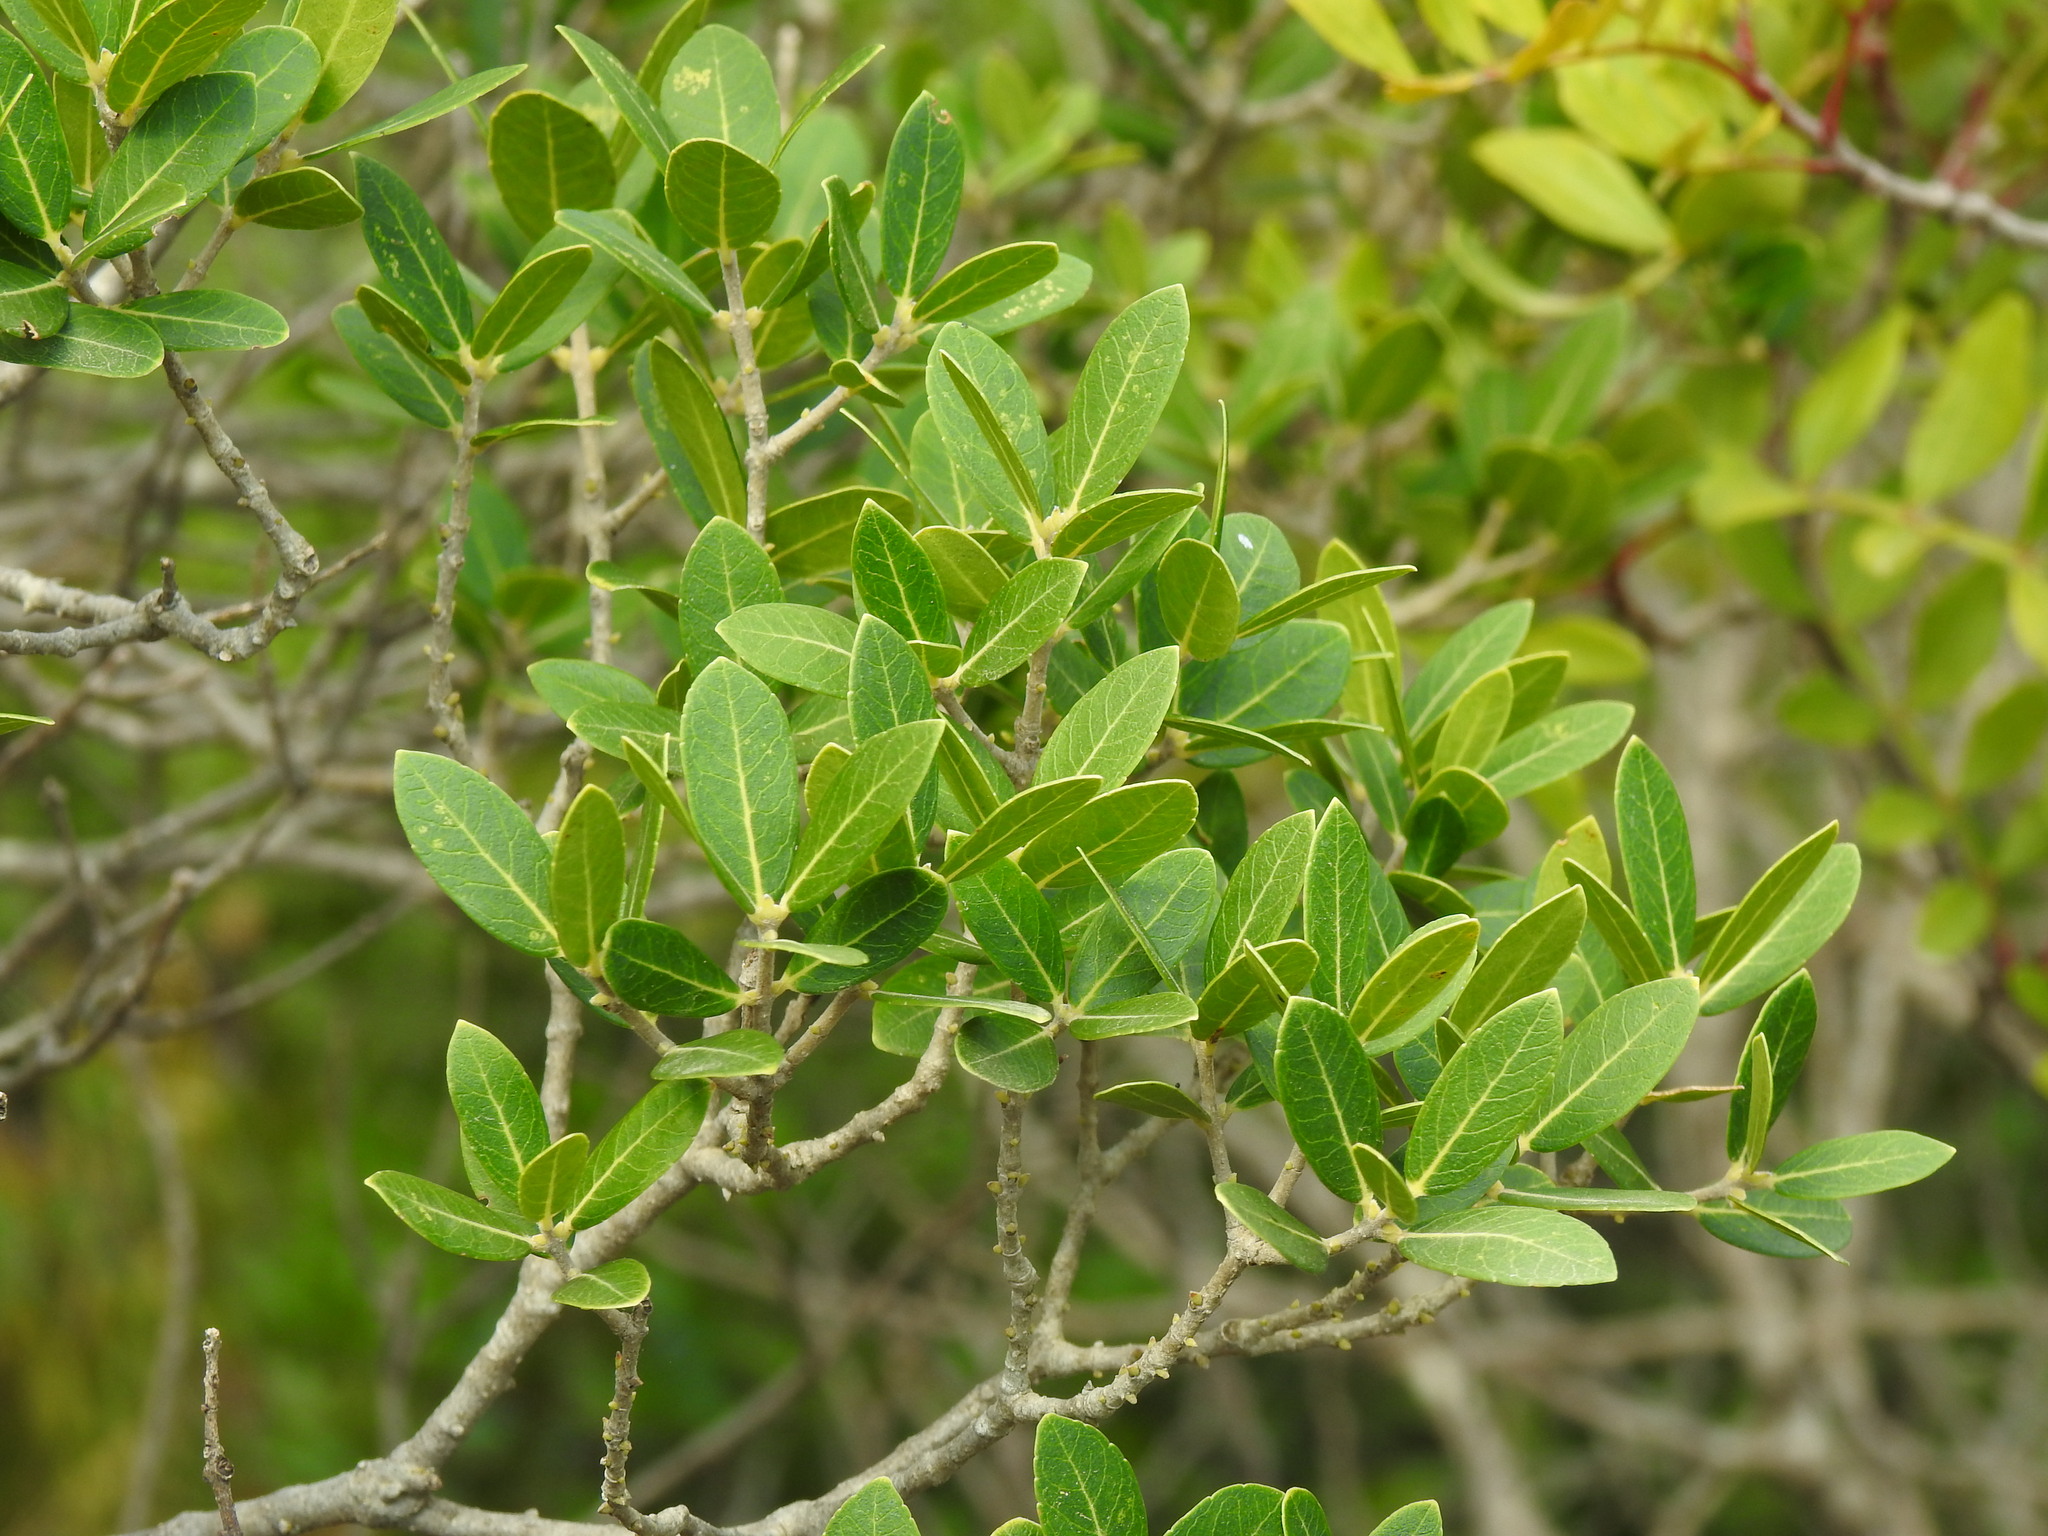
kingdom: Plantae
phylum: Tracheophyta
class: Magnoliopsida
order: Lamiales
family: Oleaceae
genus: Phillyrea
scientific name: Phillyrea latifolia
